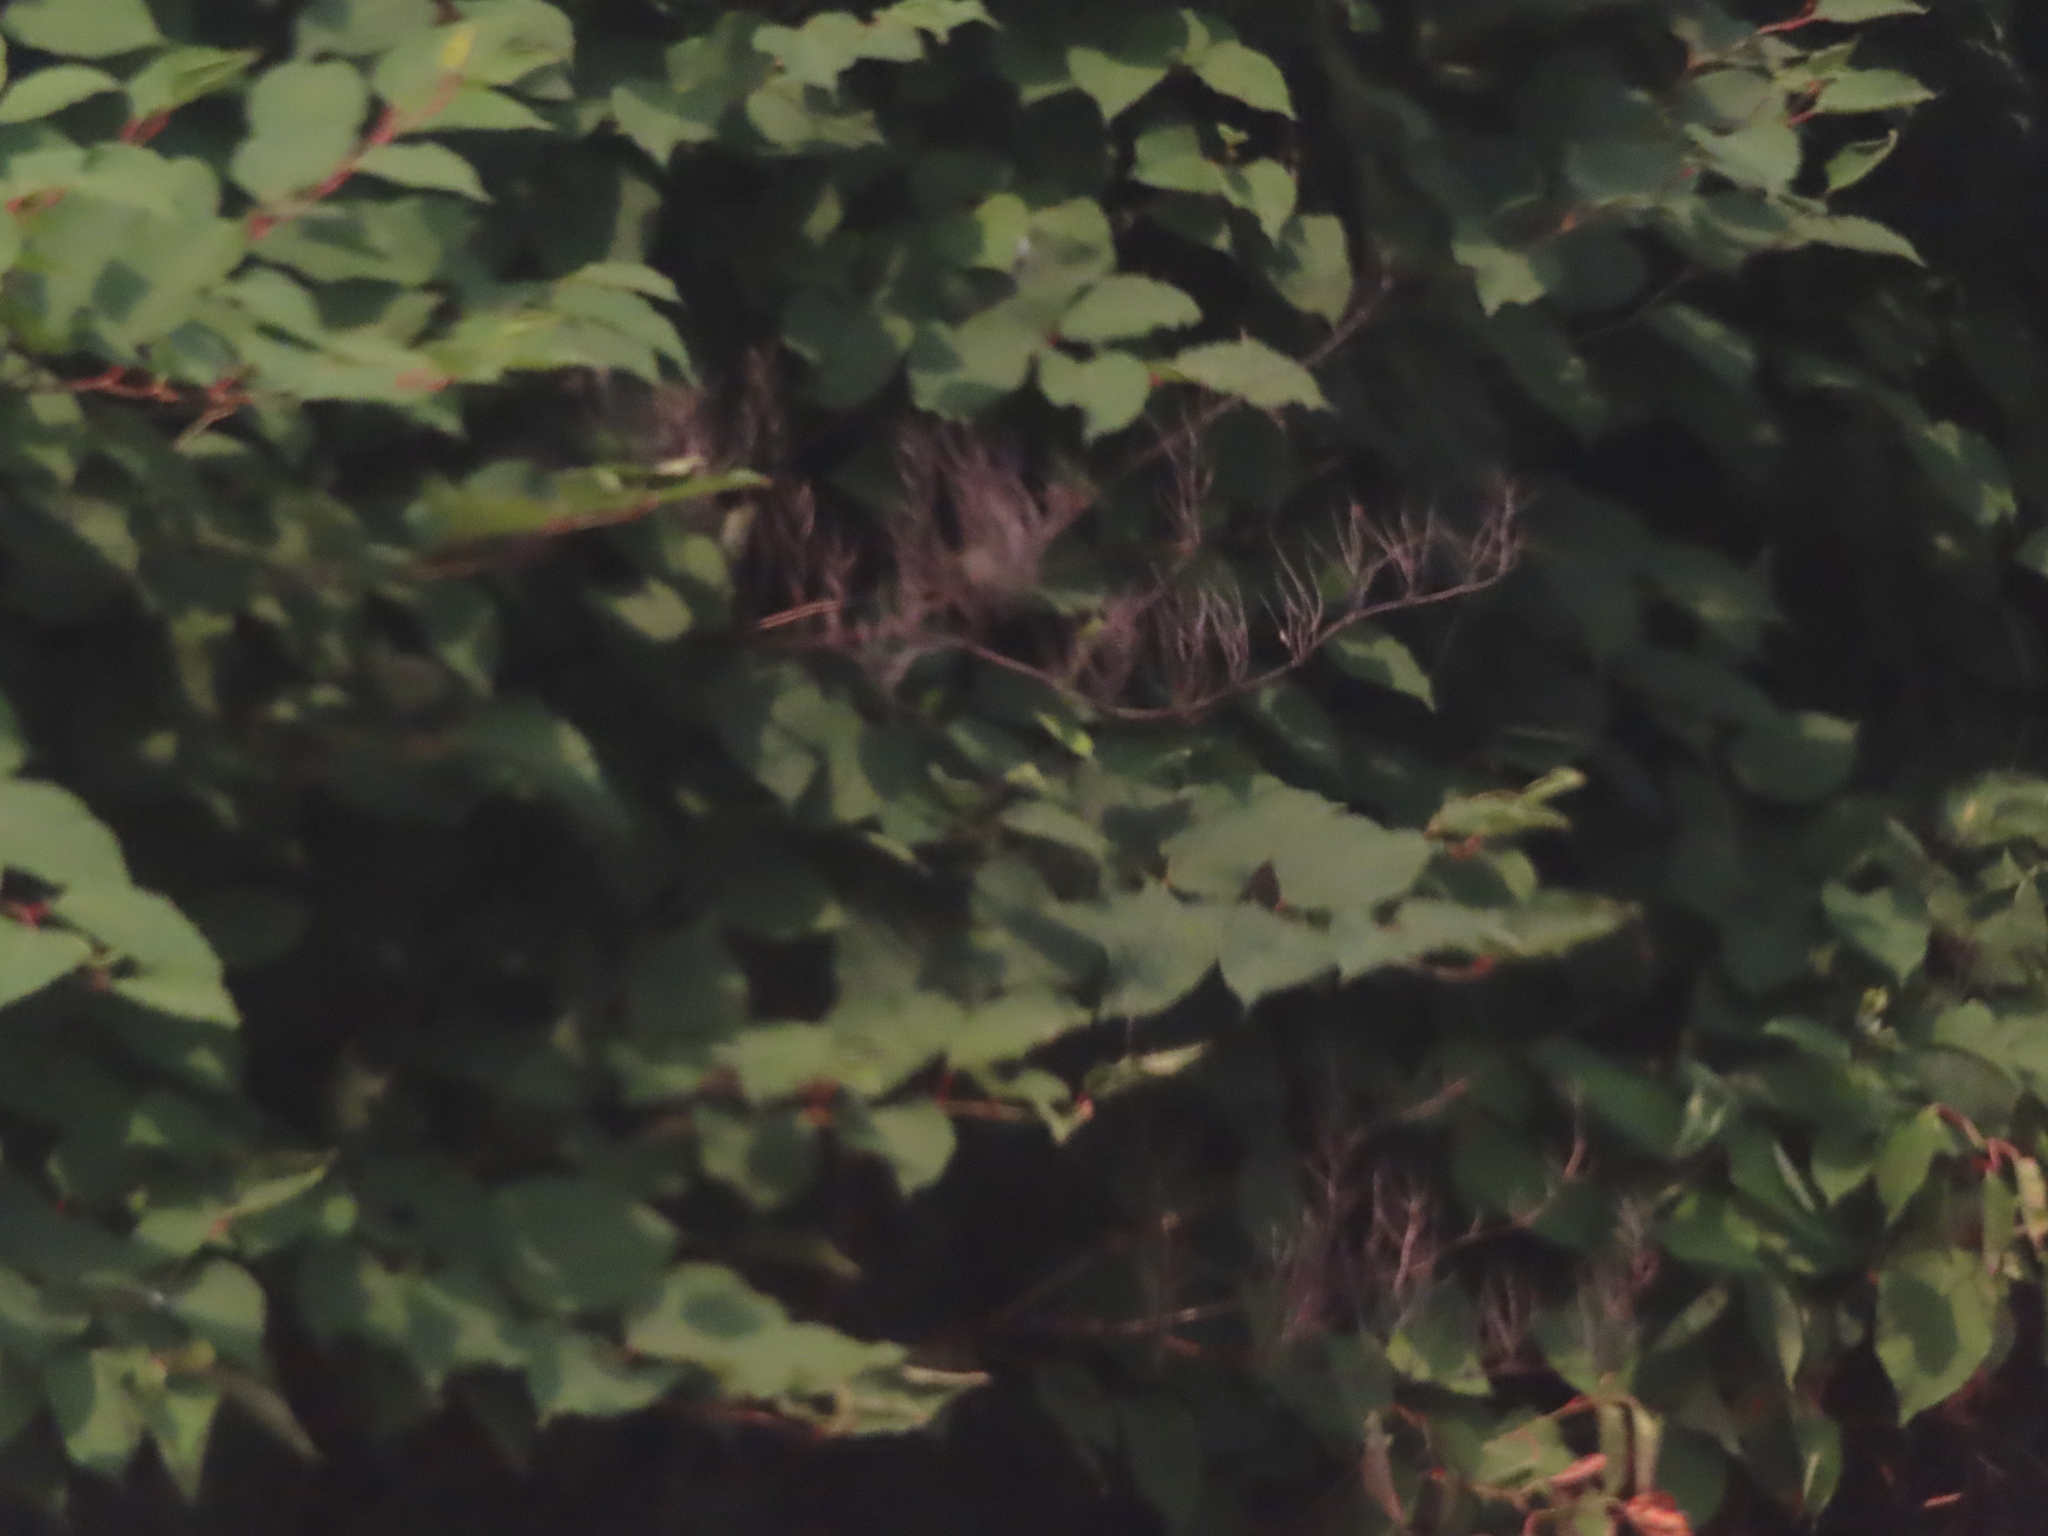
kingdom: Plantae
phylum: Tracheophyta
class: Magnoliopsida
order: Caryophyllales
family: Polygonaceae
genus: Reynoutria
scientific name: Reynoutria japonica
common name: Japanese knotweed
